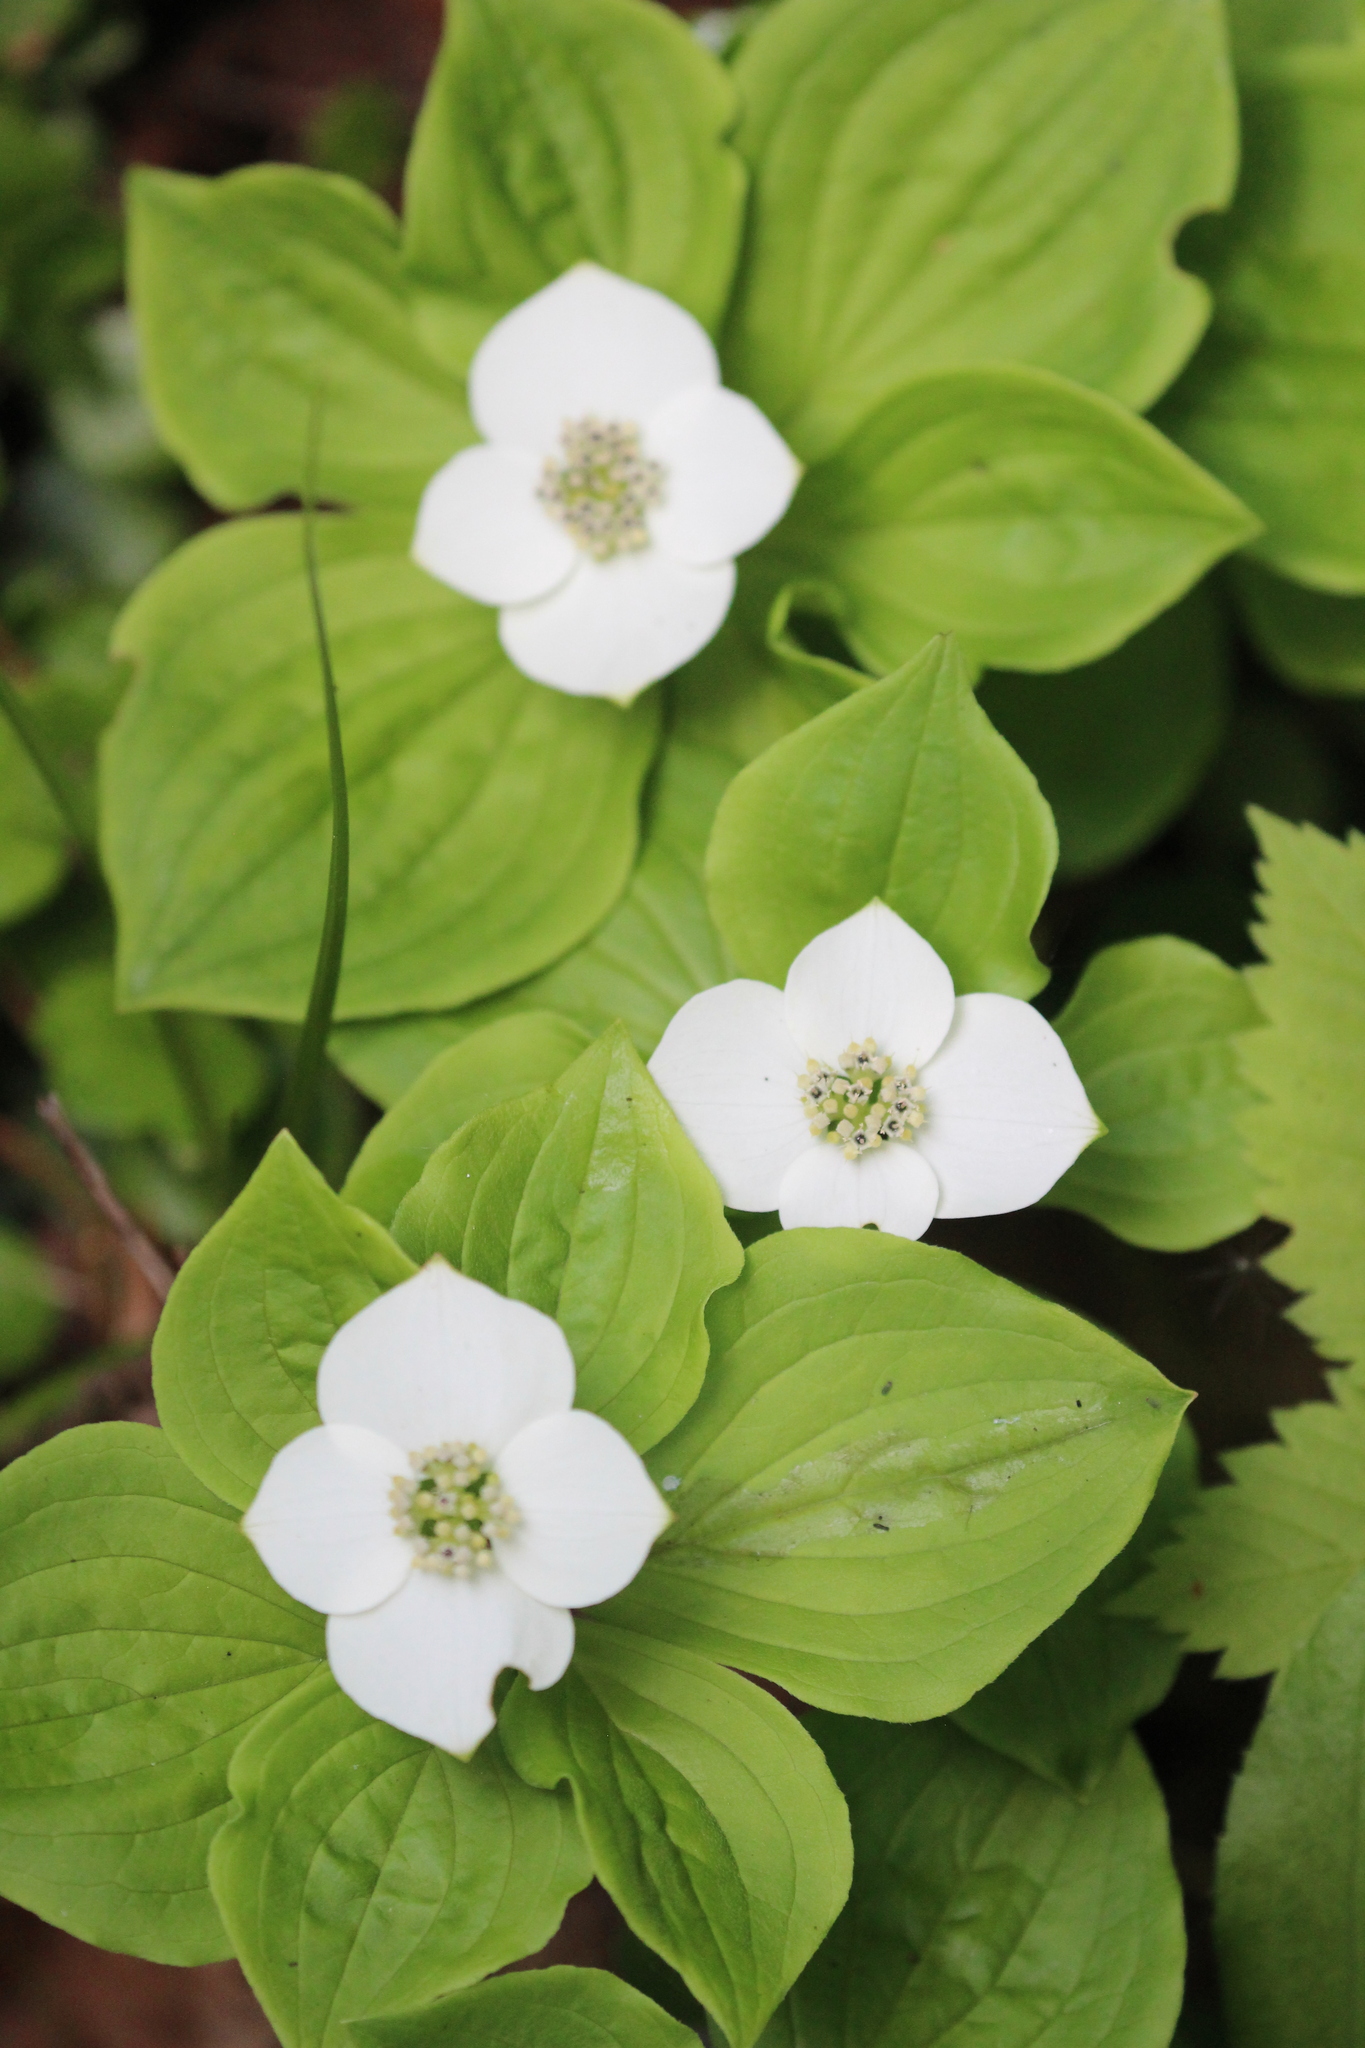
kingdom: Plantae
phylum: Tracheophyta
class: Magnoliopsida
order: Cornales
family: Cornaceae
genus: Cornus
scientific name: Cornus canadensis
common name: Creeping dogwood
